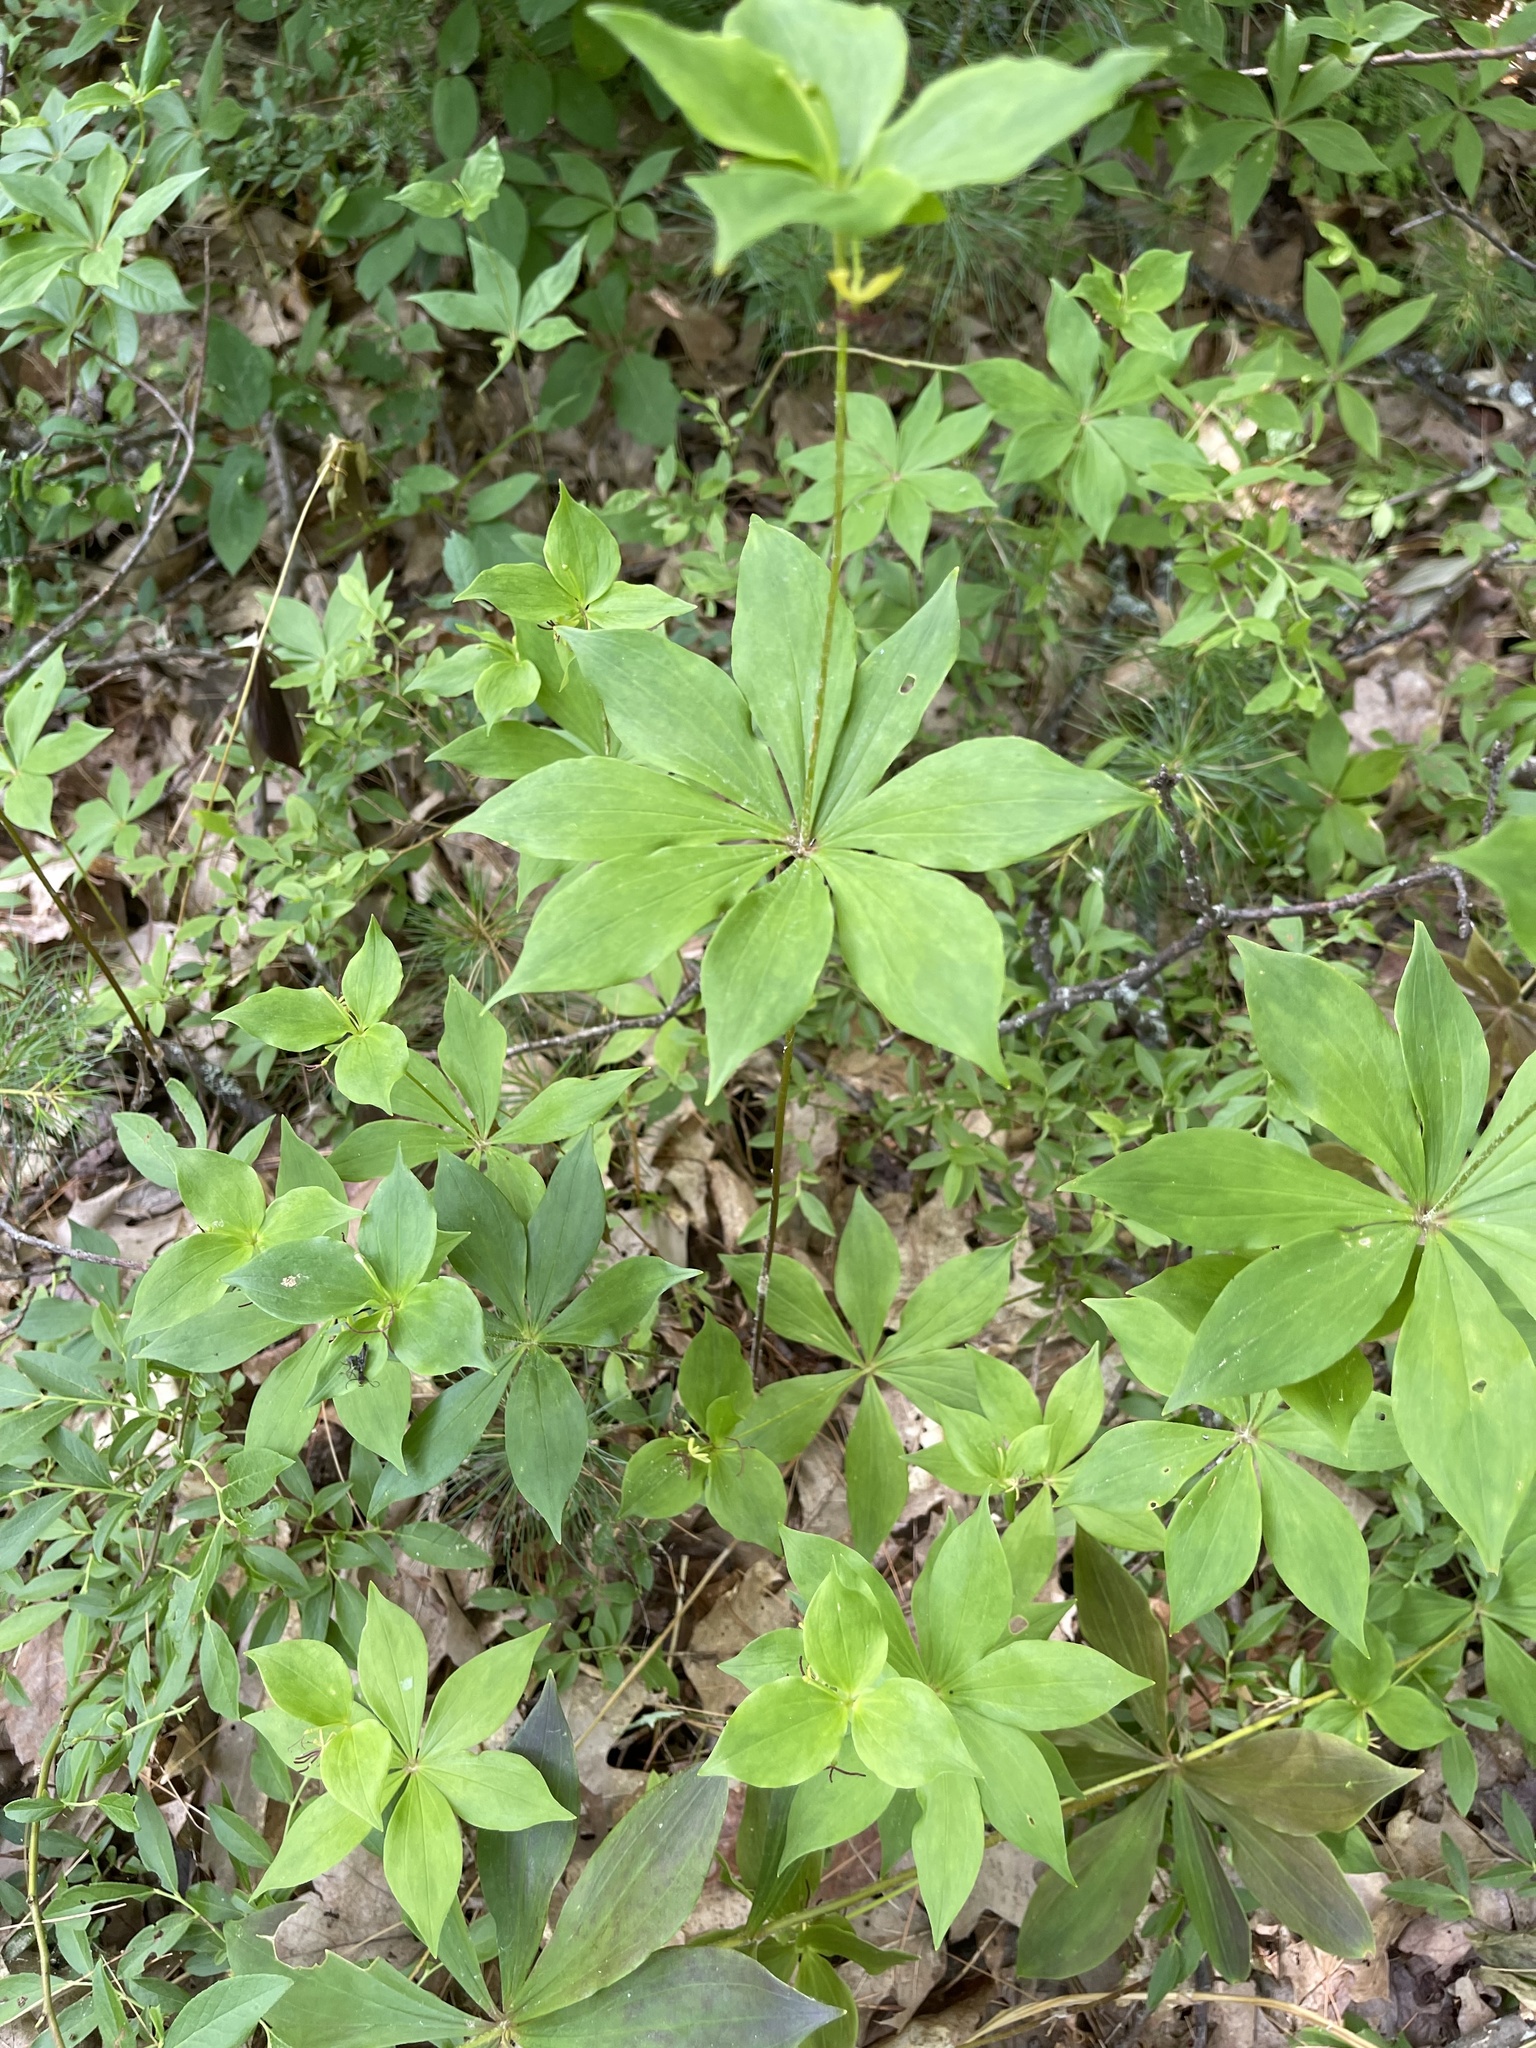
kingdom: Plantae
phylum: Tracheophyta
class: Liliopsida
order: Liliales
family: Liliaceae
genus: Medeola
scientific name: Medeola virginiana
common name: Indian cucumber-root
